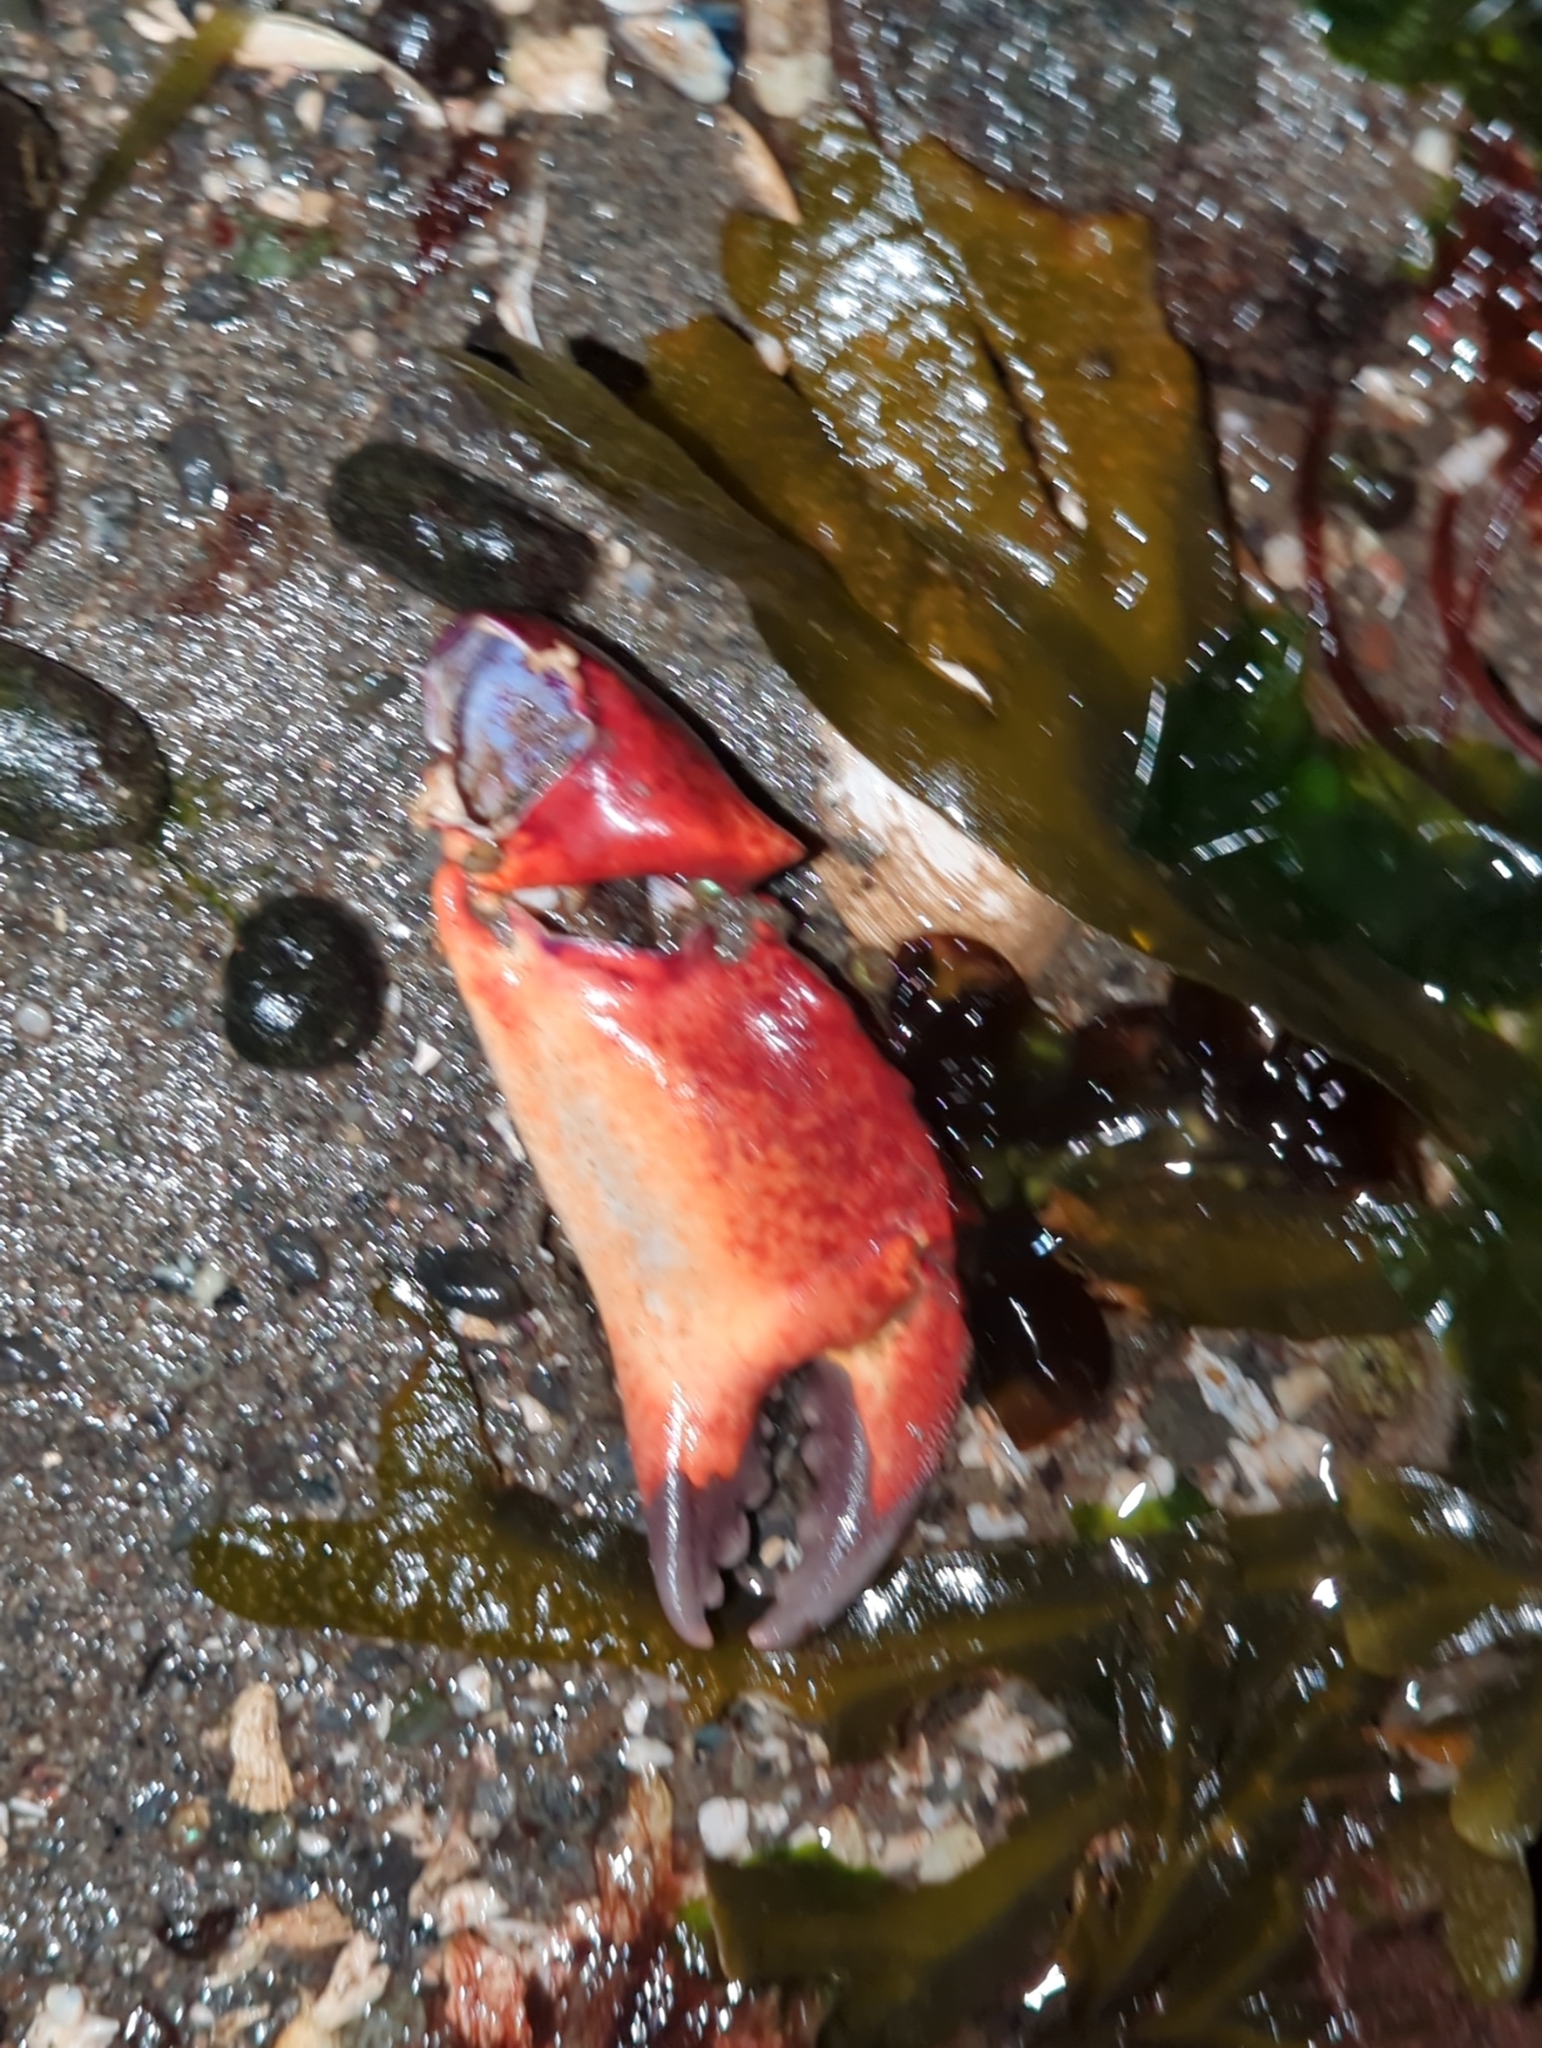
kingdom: Animalia
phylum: Arthropoda
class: Malacostraca
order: Decapoda
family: Cancridae
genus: Cancer
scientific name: Cancer productus
